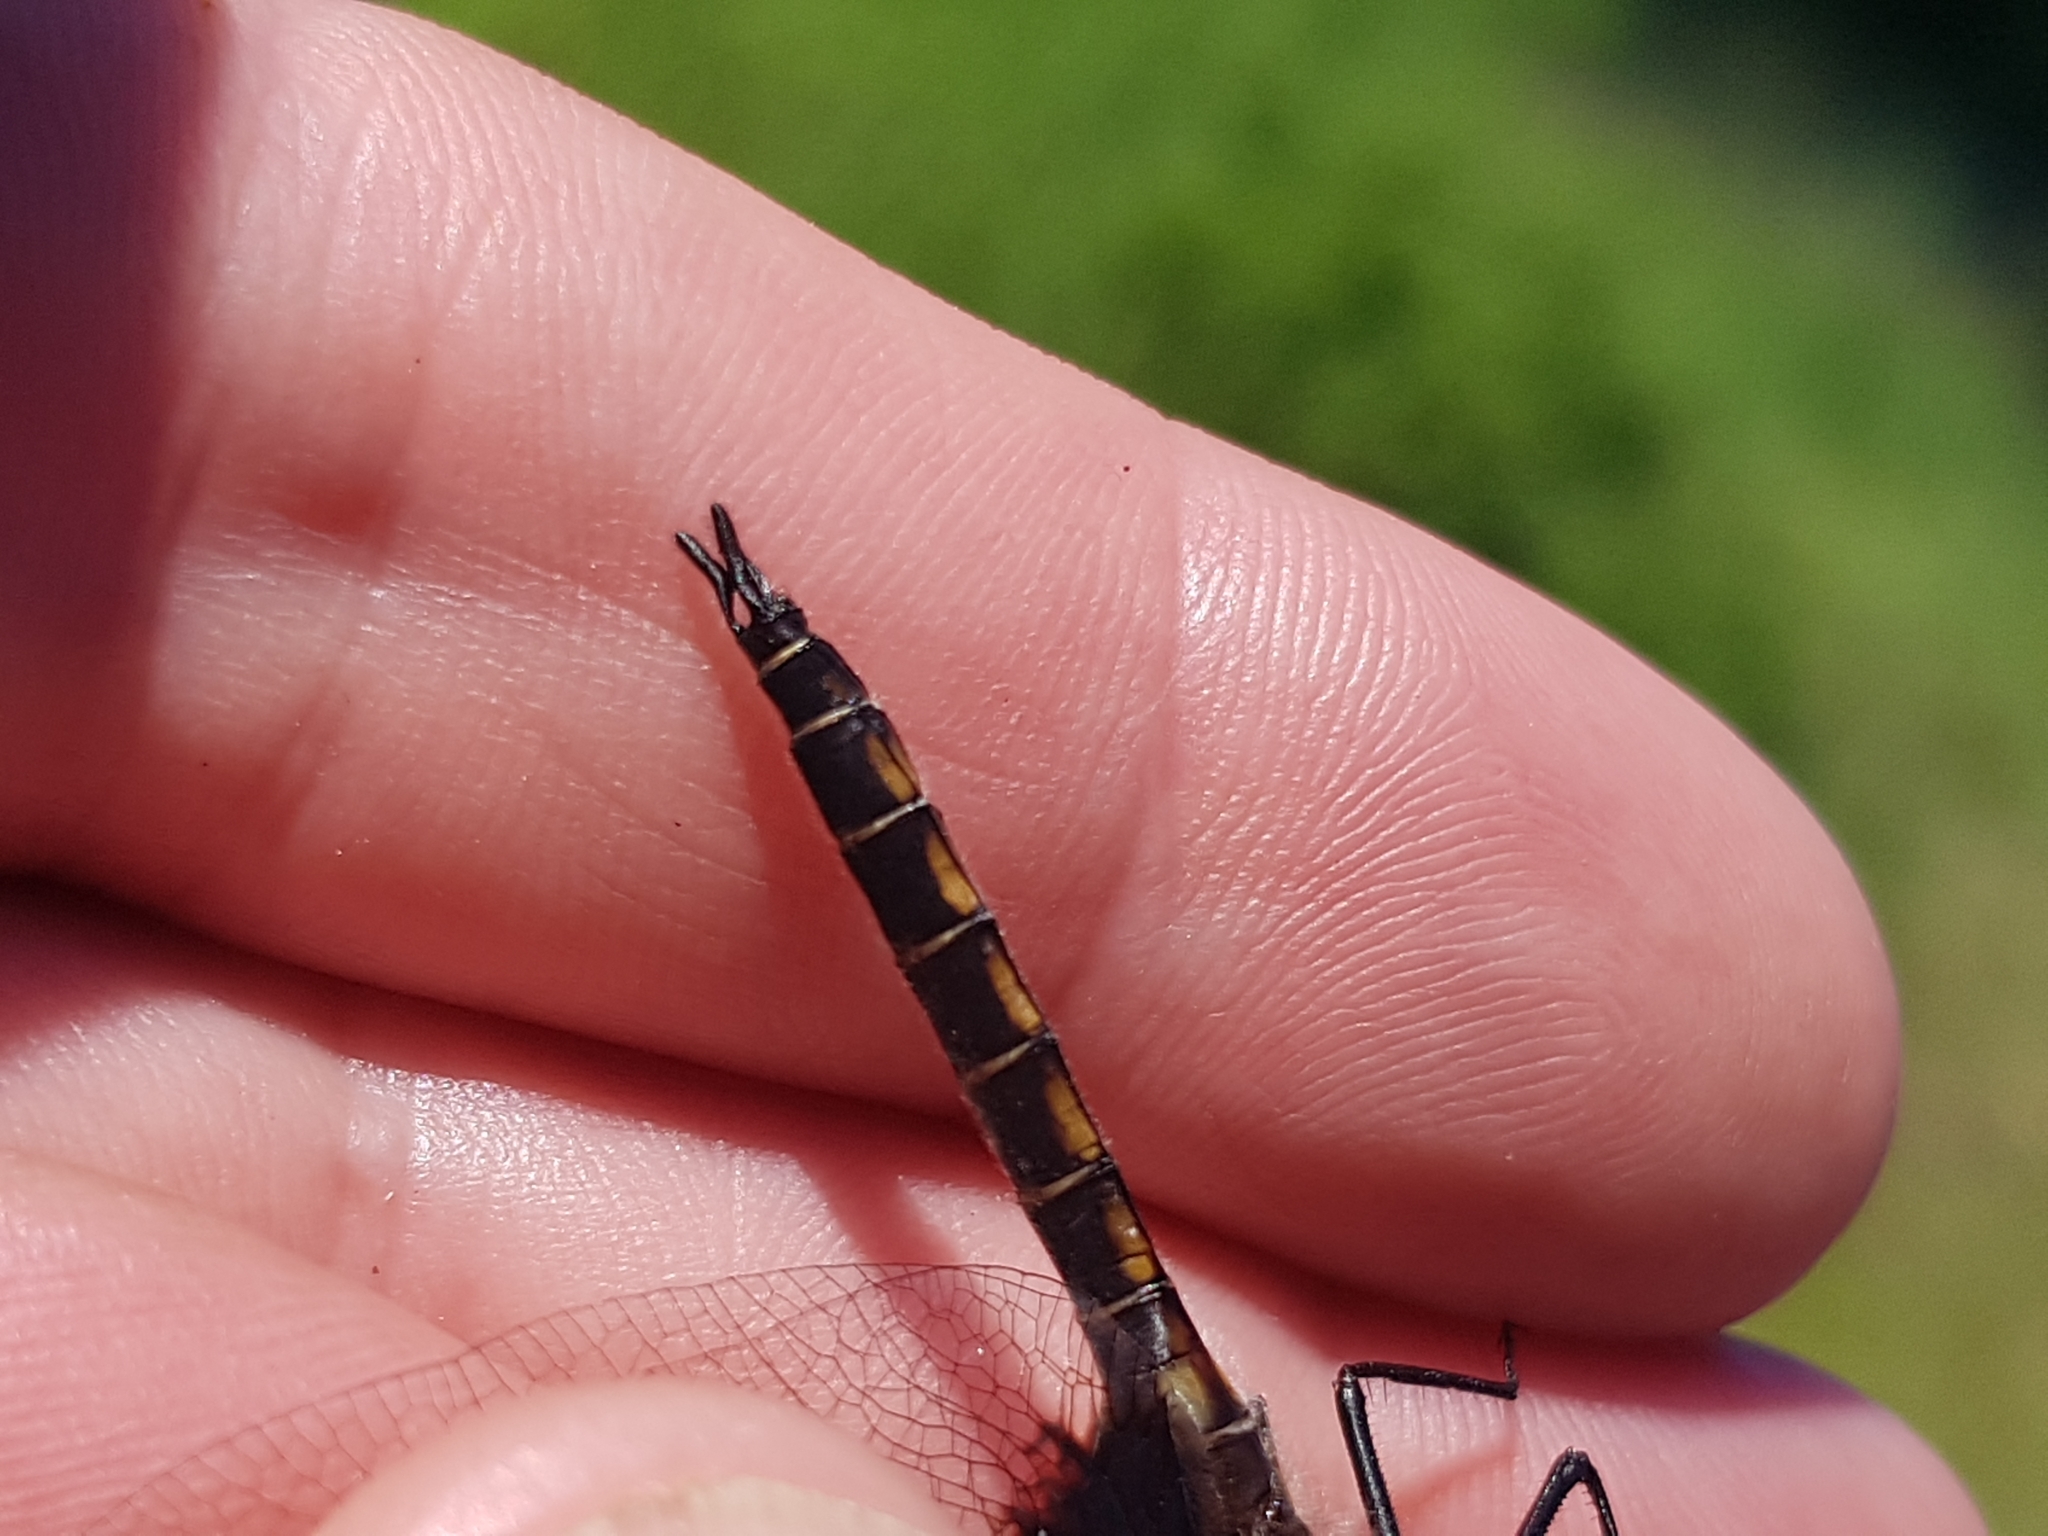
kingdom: Animalia
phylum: Arthropoda
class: Insecta
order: Odonata
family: Corduliidae
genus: Epitheca
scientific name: Epitheca cynosura
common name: Common baskettail
